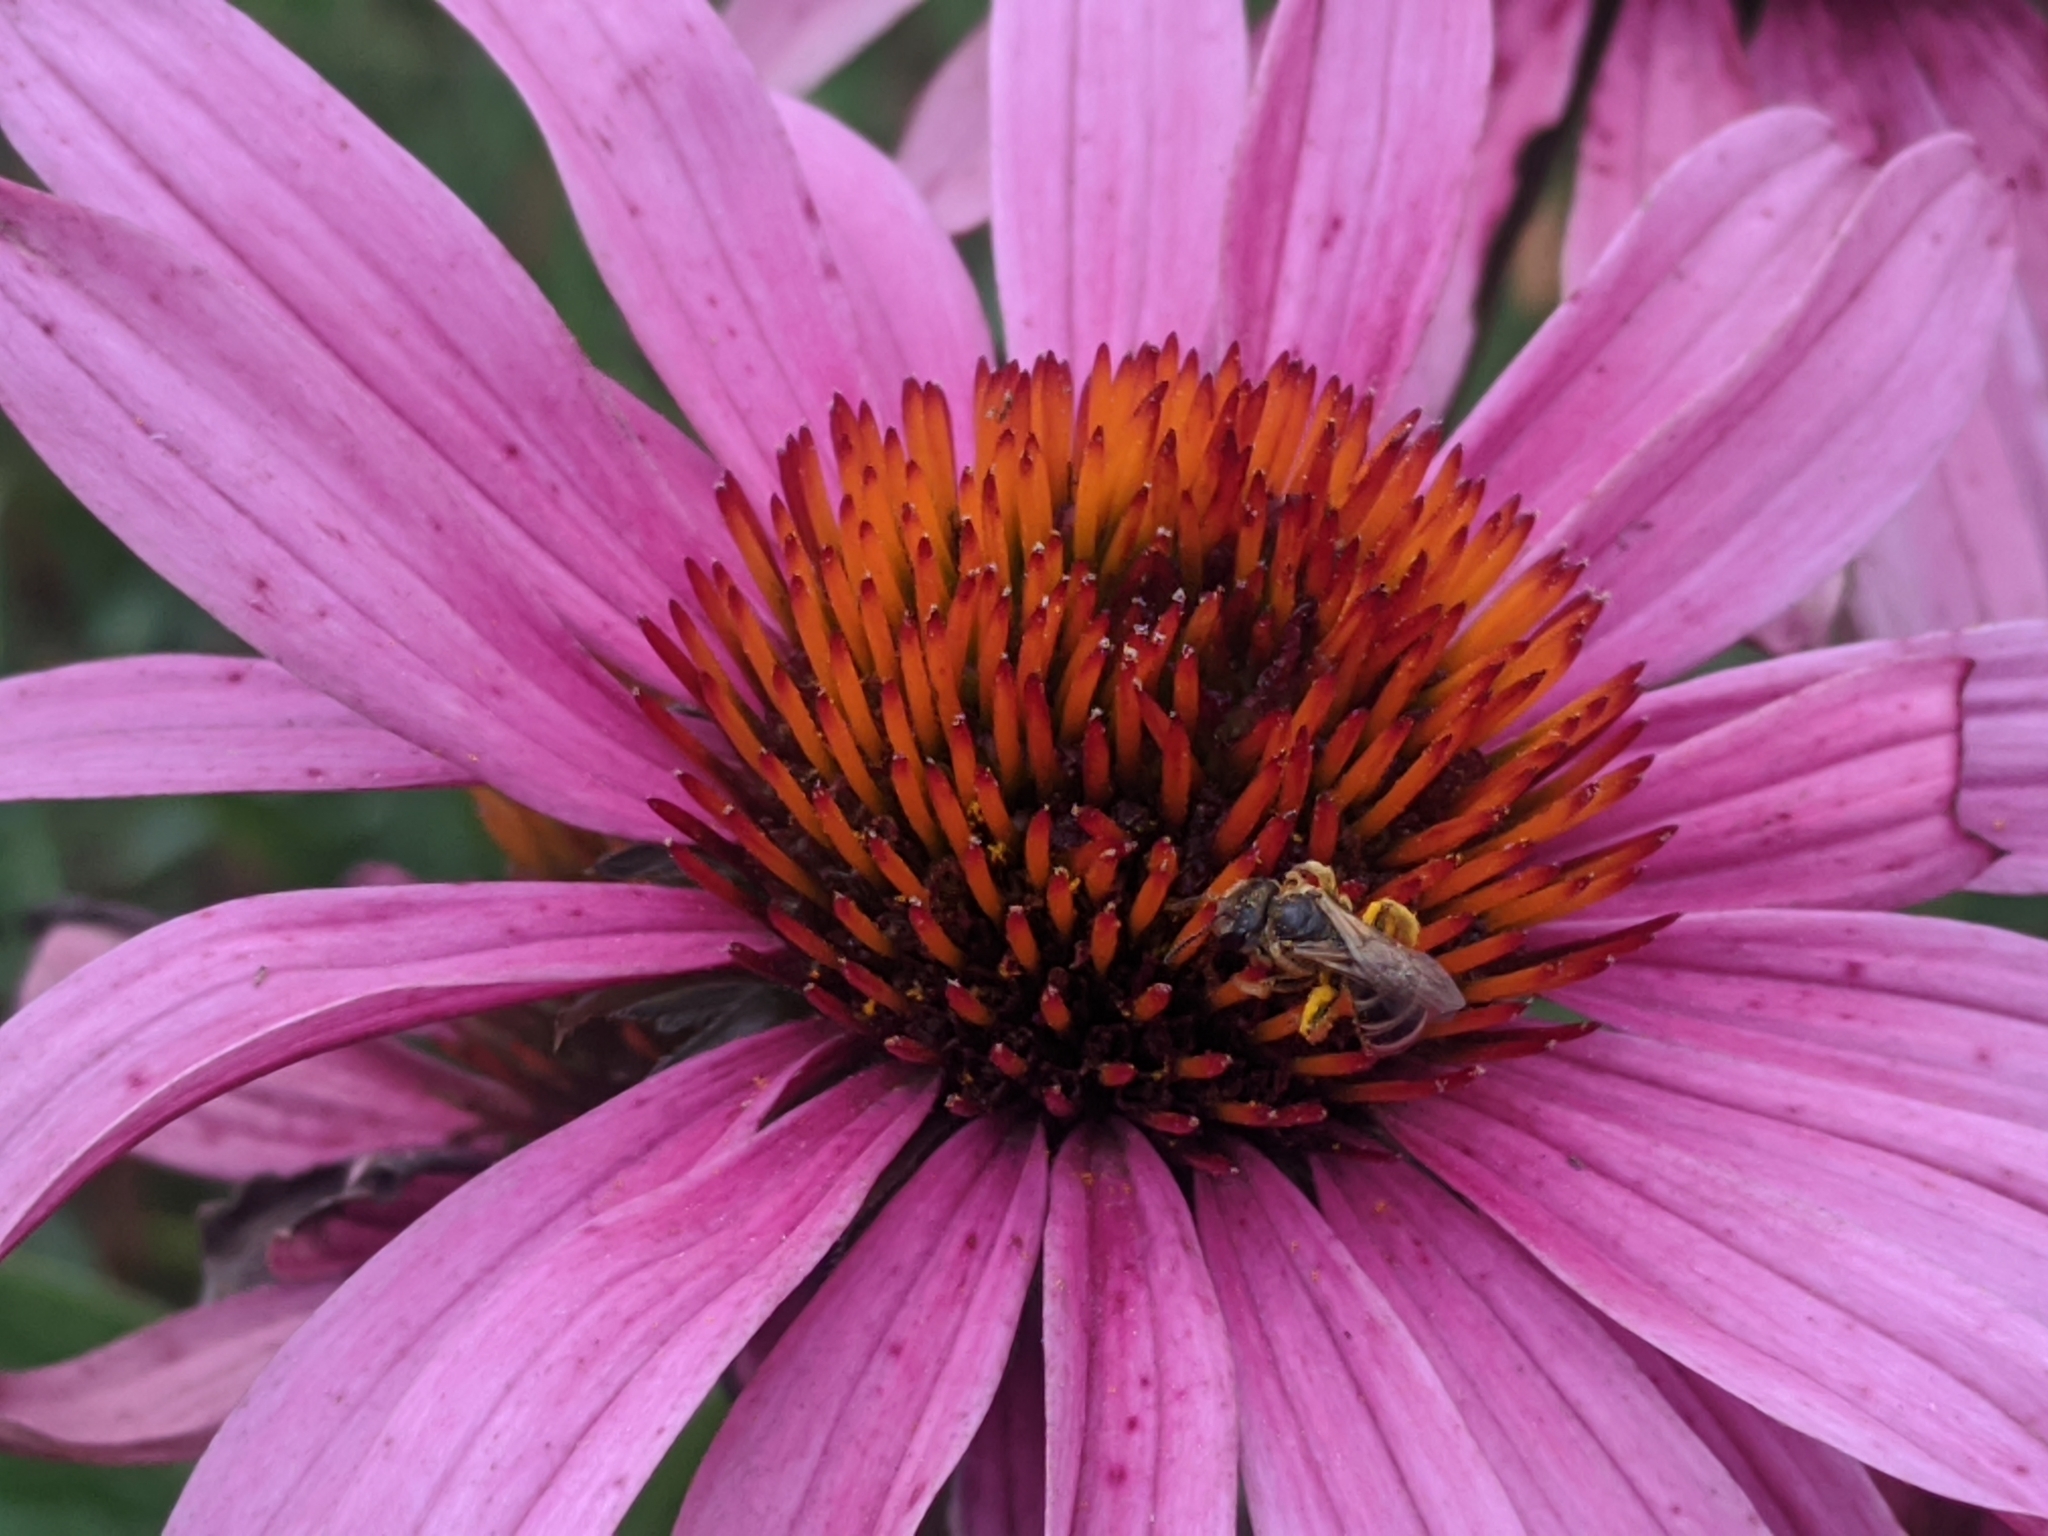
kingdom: Animalia
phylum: Arthropoda
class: Insecta
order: Hymenoptera
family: Halictidae
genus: Halictus
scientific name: Halictus ligatus
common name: Ligated furrow bee
